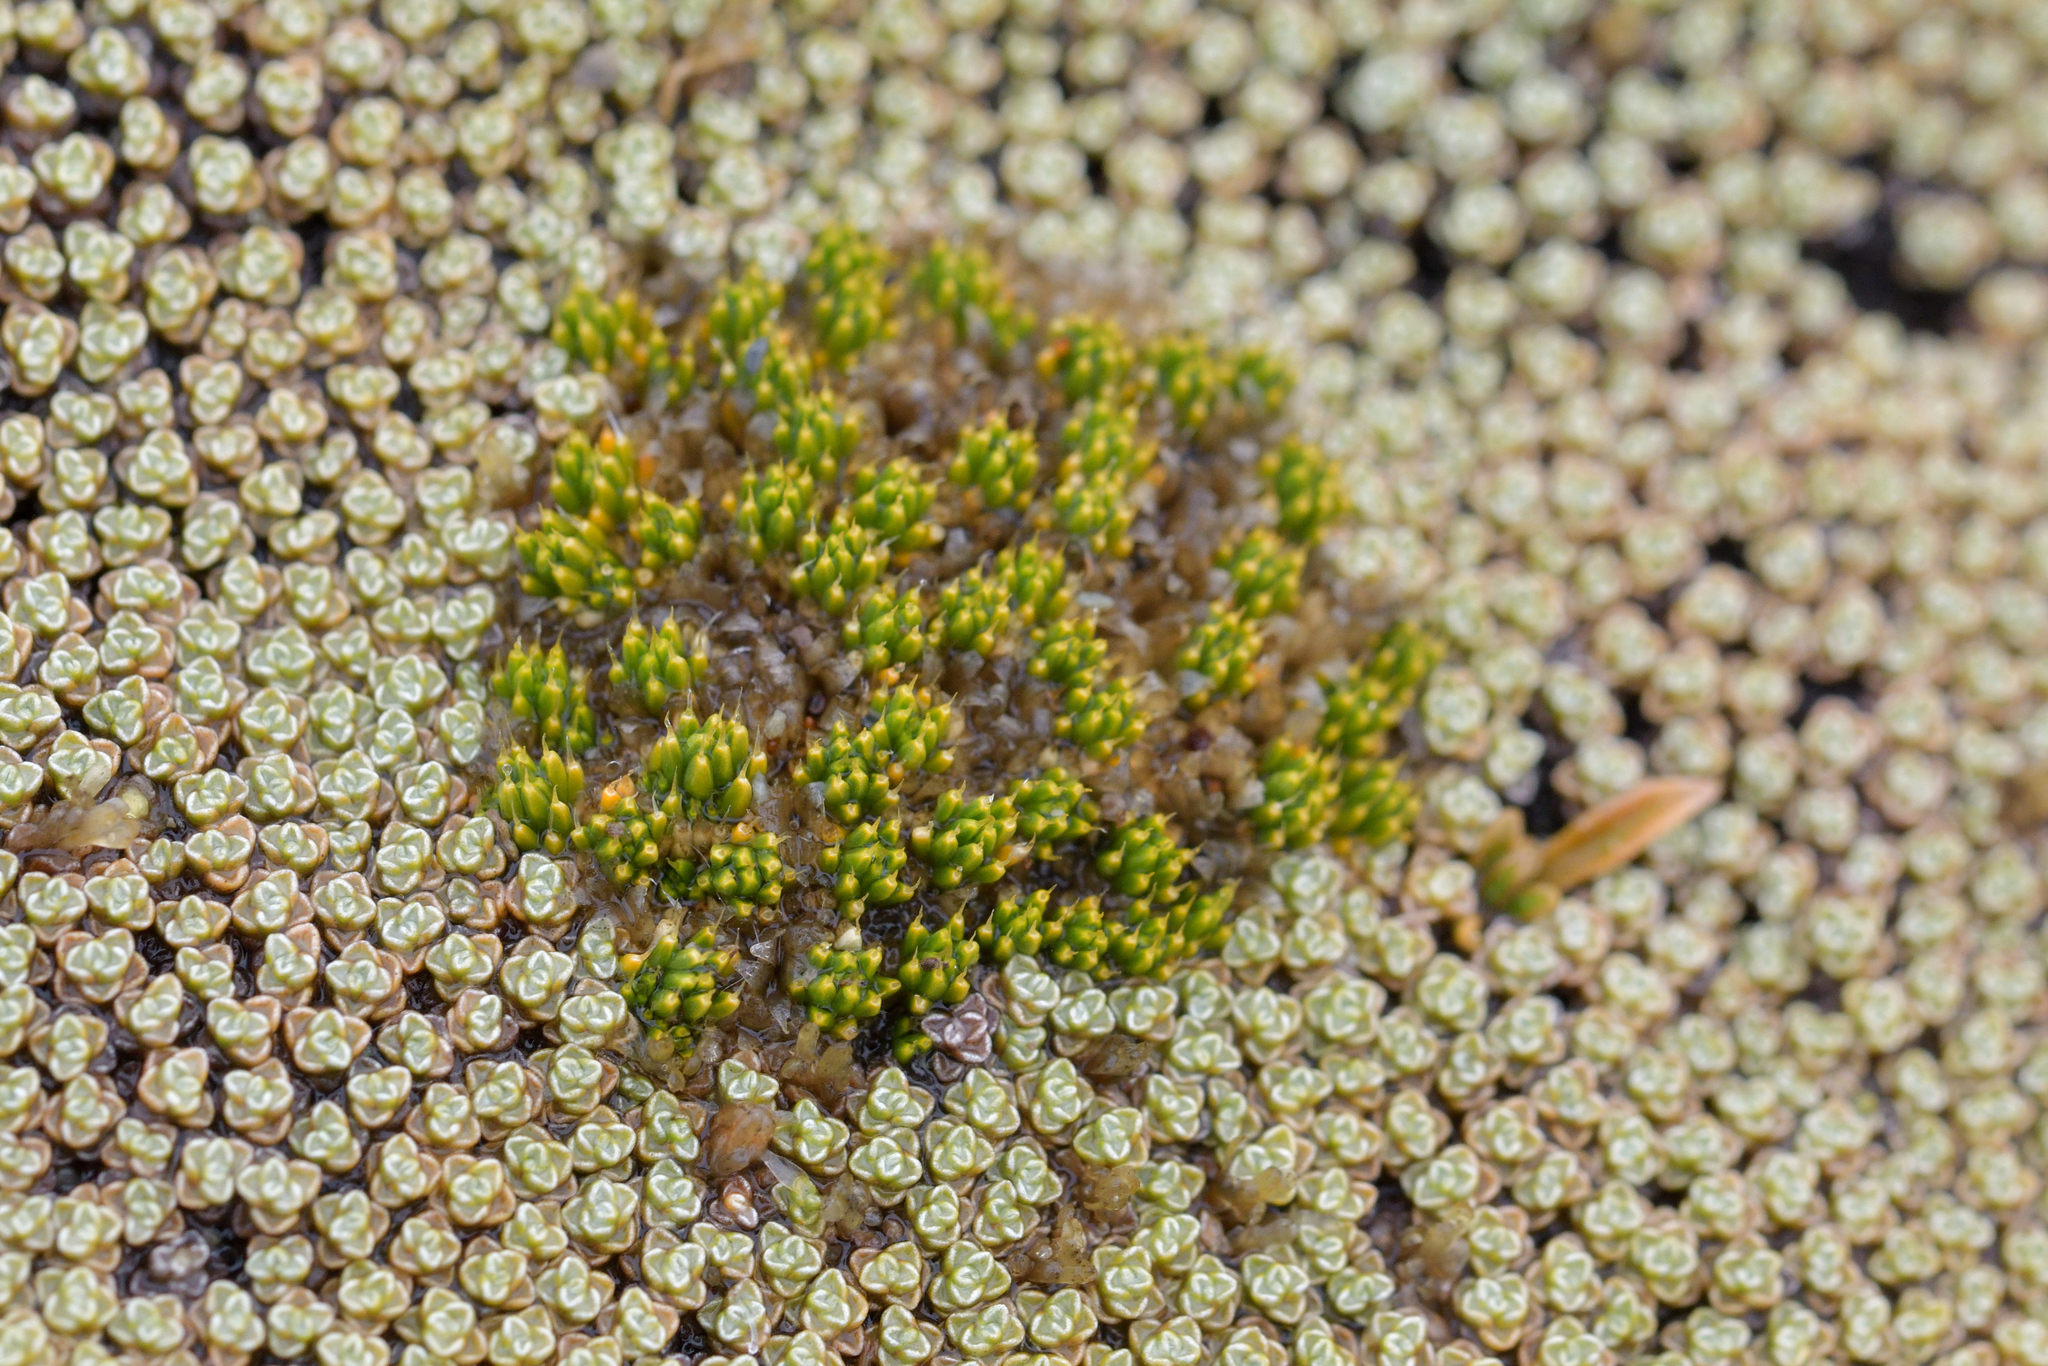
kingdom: Plantae
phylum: Tracheophyta
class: Magnoliopsida
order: Caryophyllales
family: Caryophyllaceae
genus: Colobanthus
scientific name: Colobanthus brevisepalus
